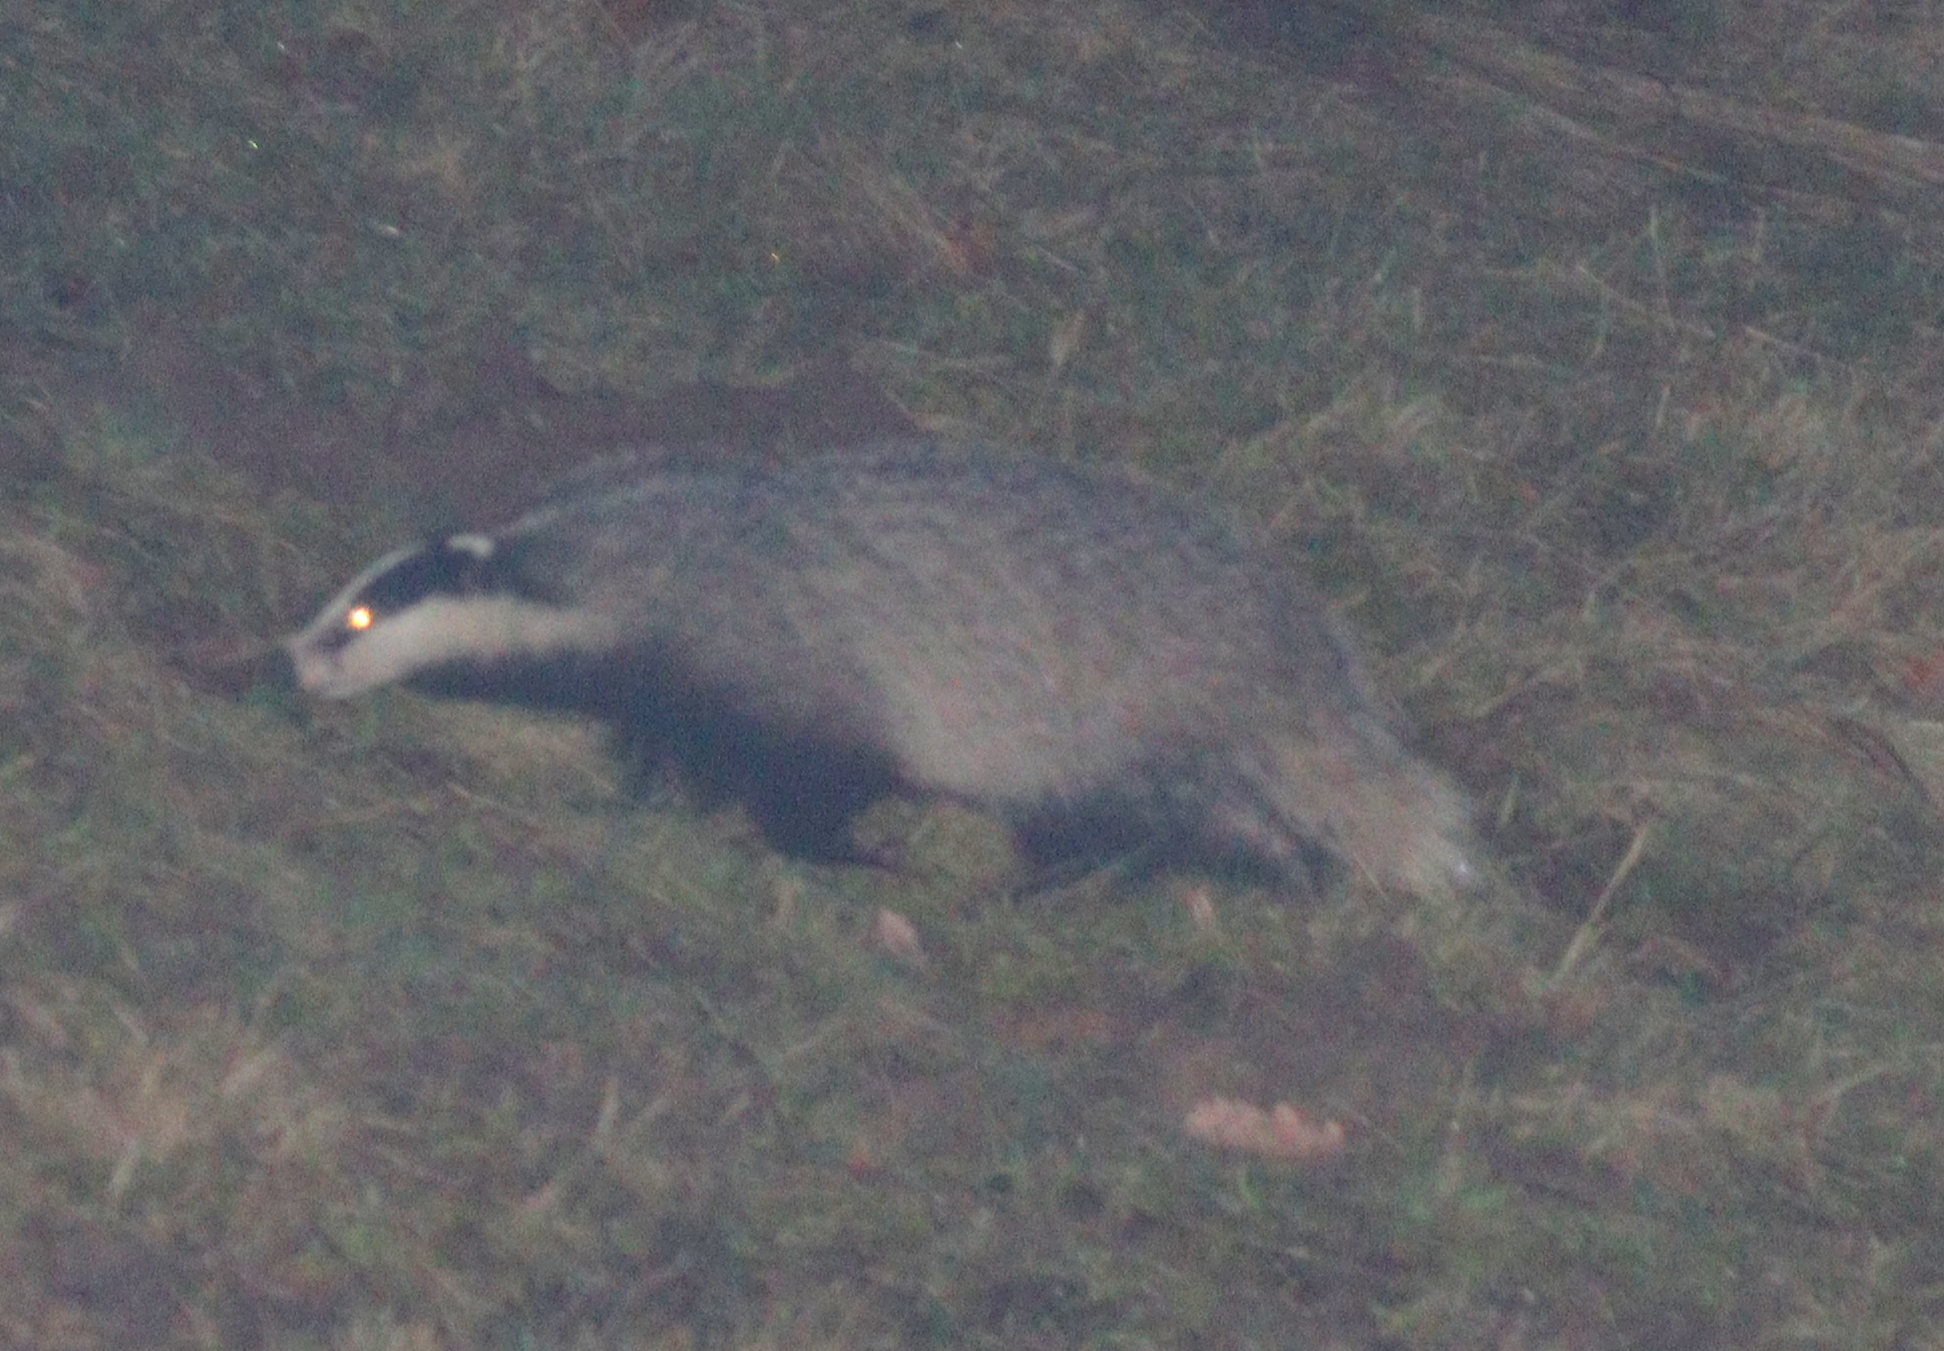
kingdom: Animalia
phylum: Chordata
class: Mammalia
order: Carnivora
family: Mustelidae
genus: Meles
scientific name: Meles meles
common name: Eurasian badger
